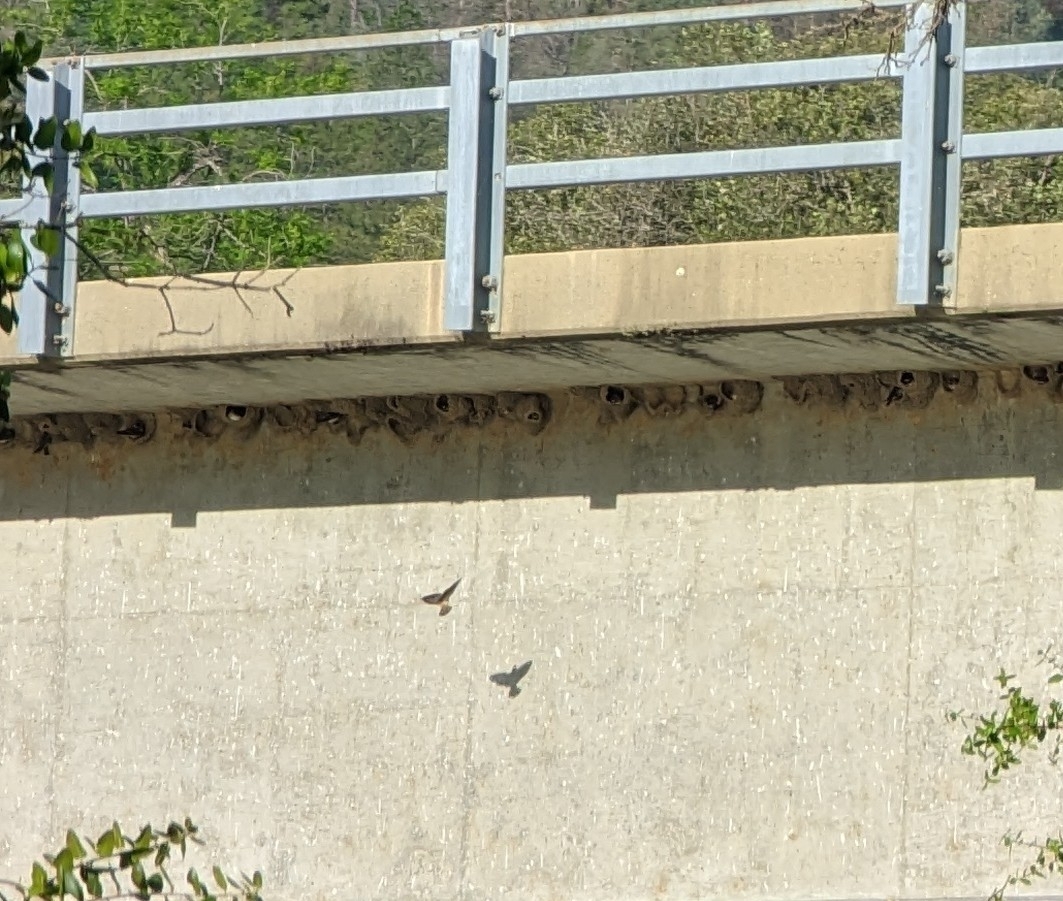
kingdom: Animalia
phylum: Chordata
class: Aves
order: Passeriformes
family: Hirundinidae
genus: Petrochelidon
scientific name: Petrochelidon pyrrhonota
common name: American cliff swallow
